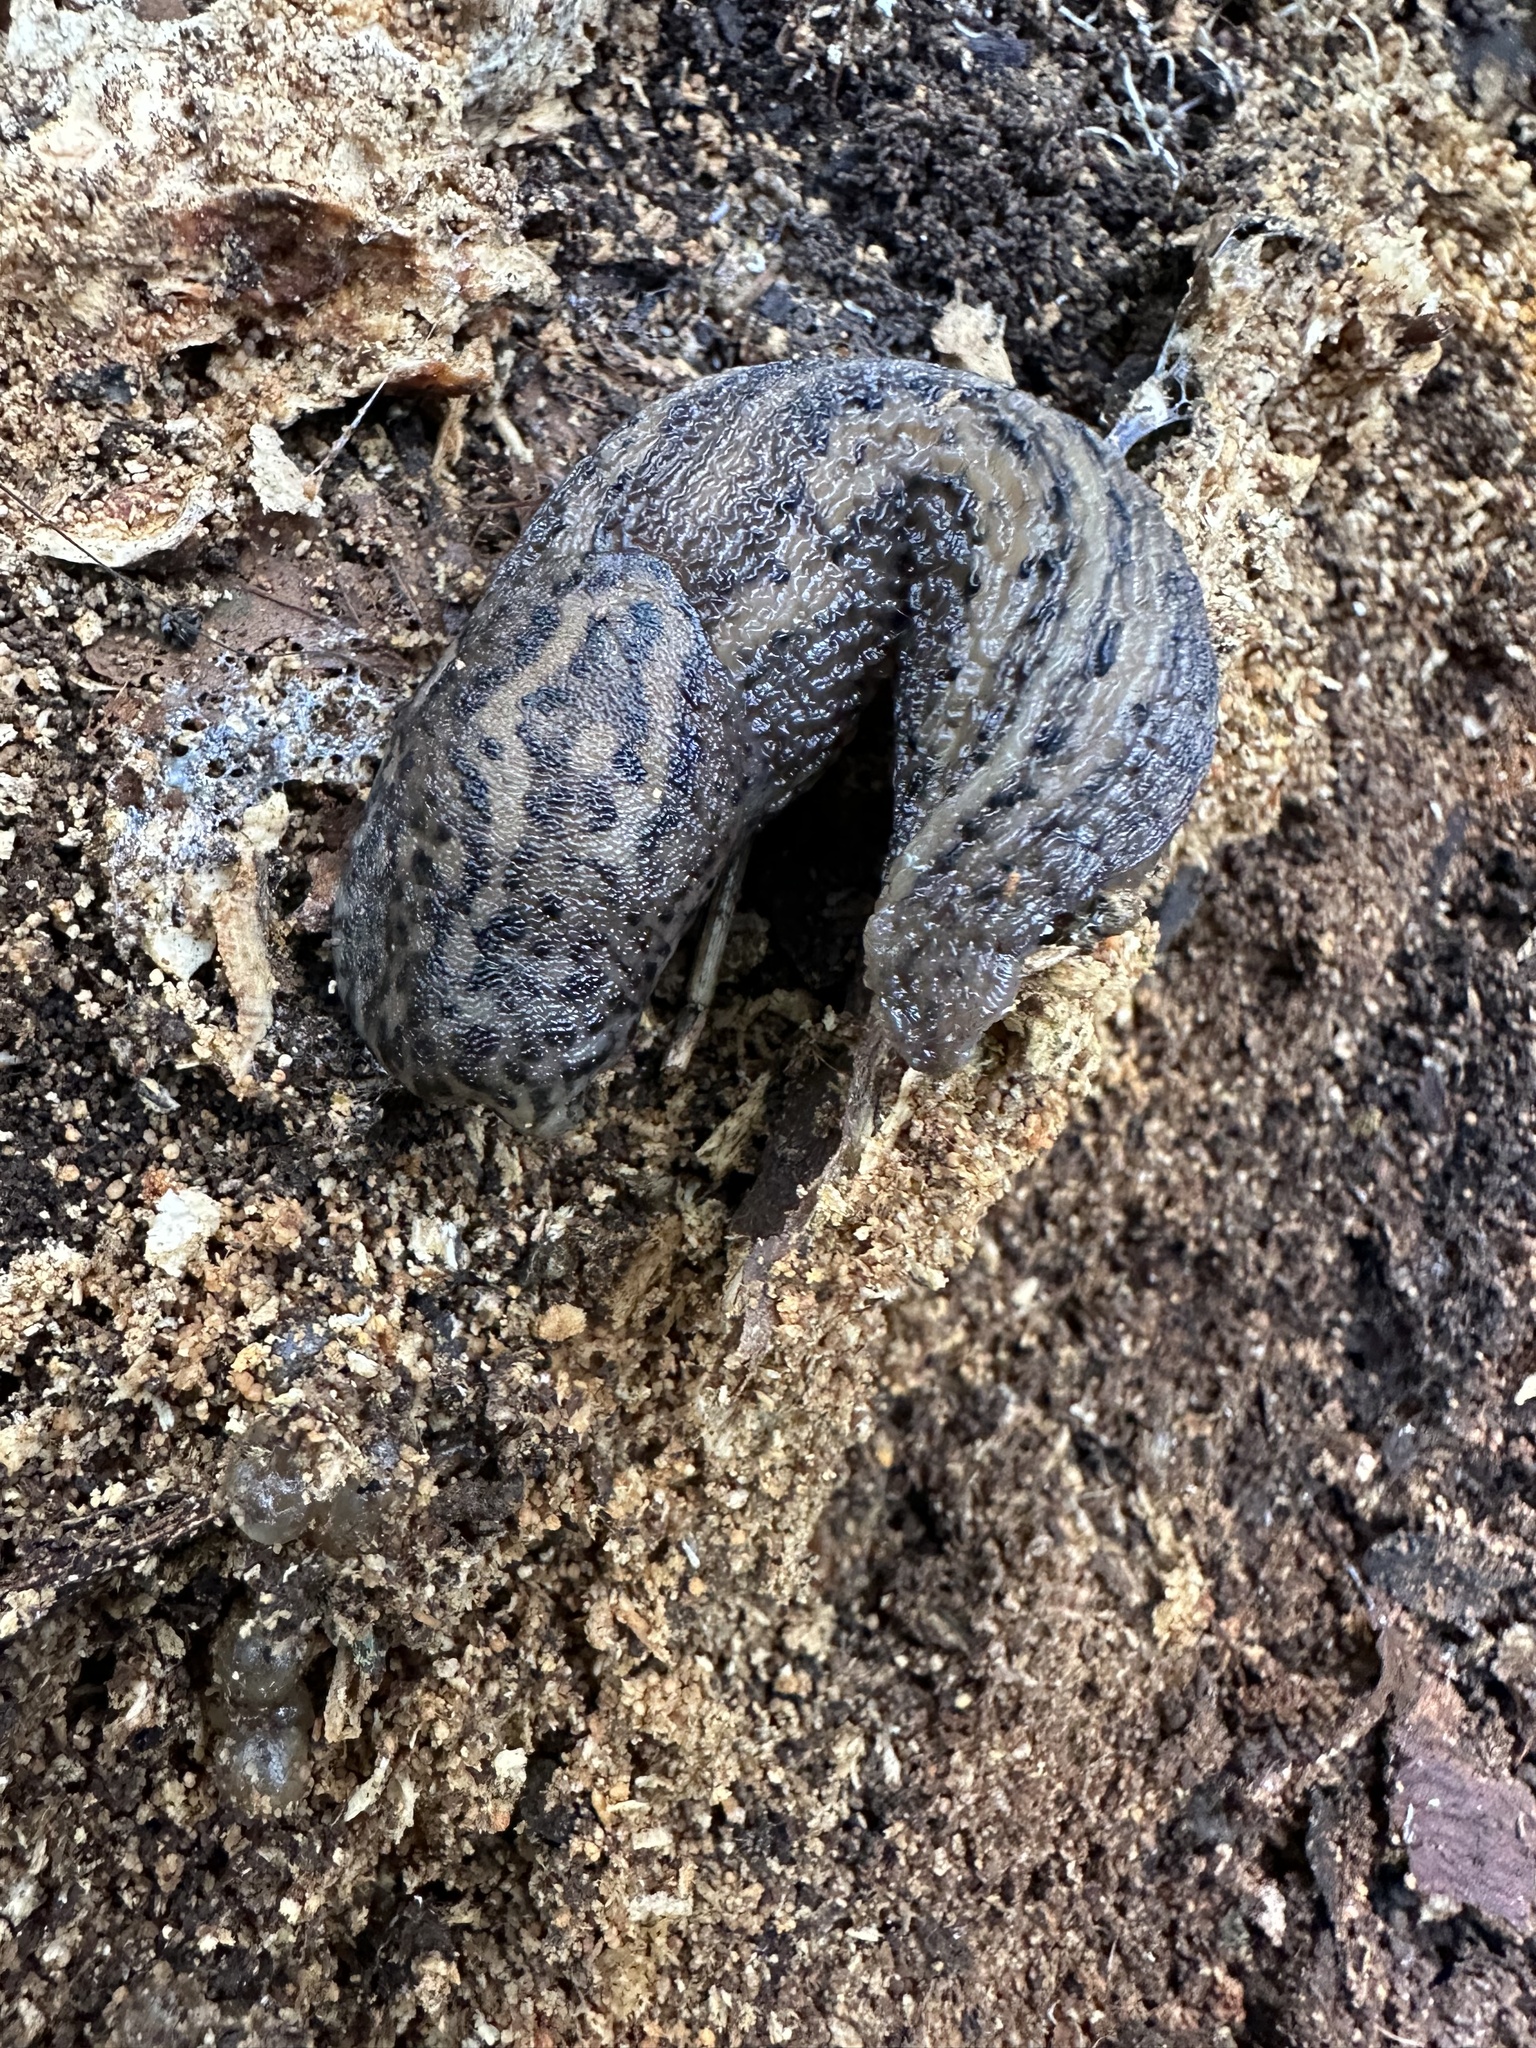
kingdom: Animalia
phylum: Mollusca
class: Gastropoda
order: Stylommatophora
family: Limacidae
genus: Limax
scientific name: Limax maximus
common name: Great grey slug
